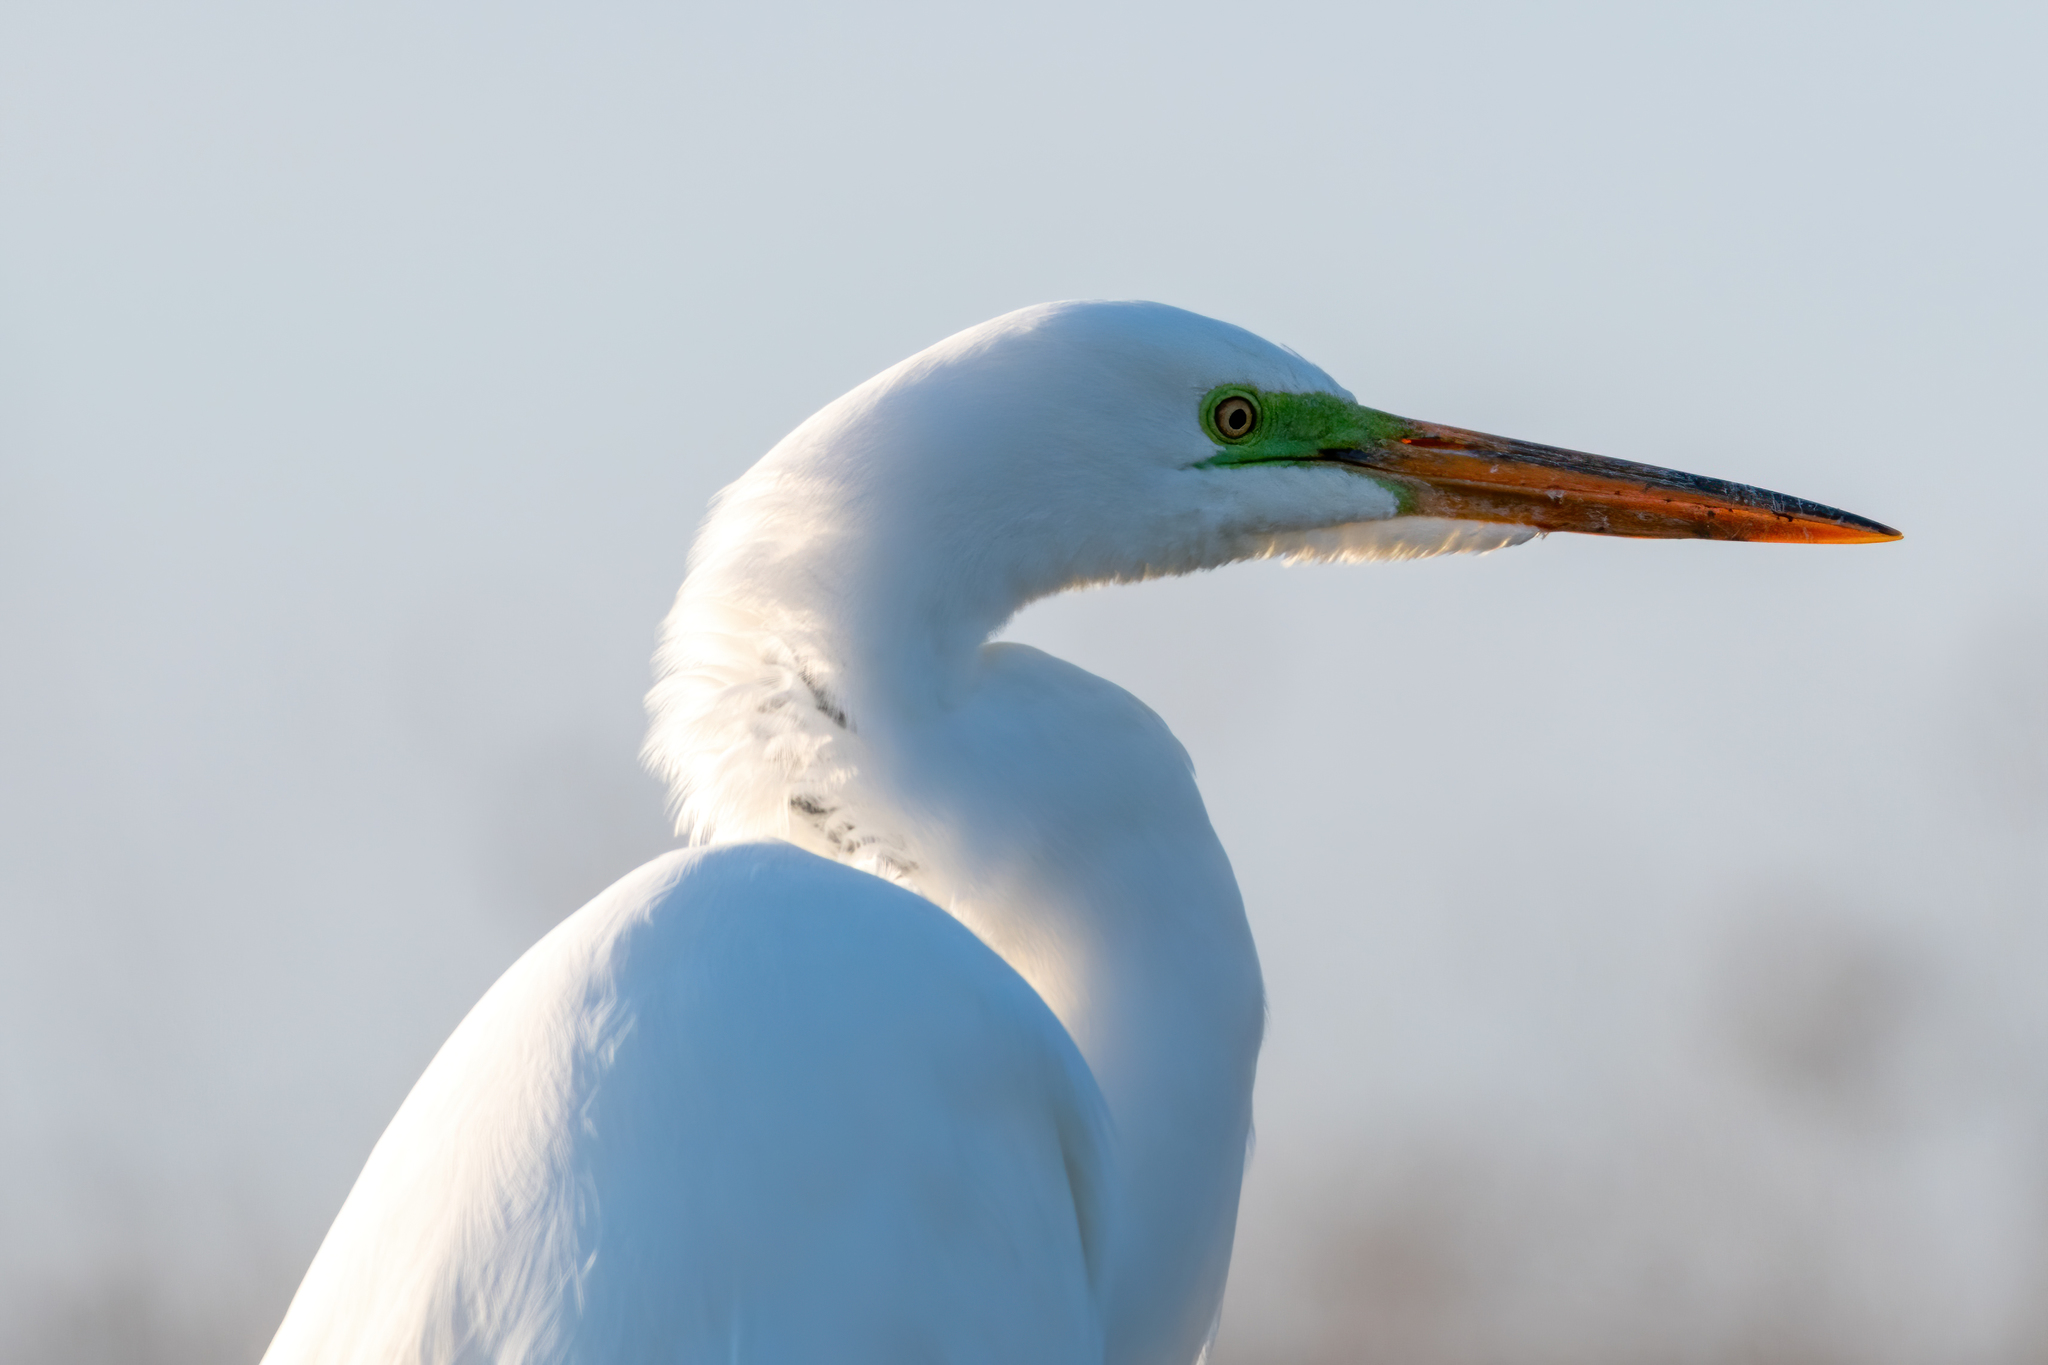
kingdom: Animalia
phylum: Chordata
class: Aves
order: Pelecaniformes
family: Ardeidae
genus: Ardea
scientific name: Ardea alba
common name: Great egret
